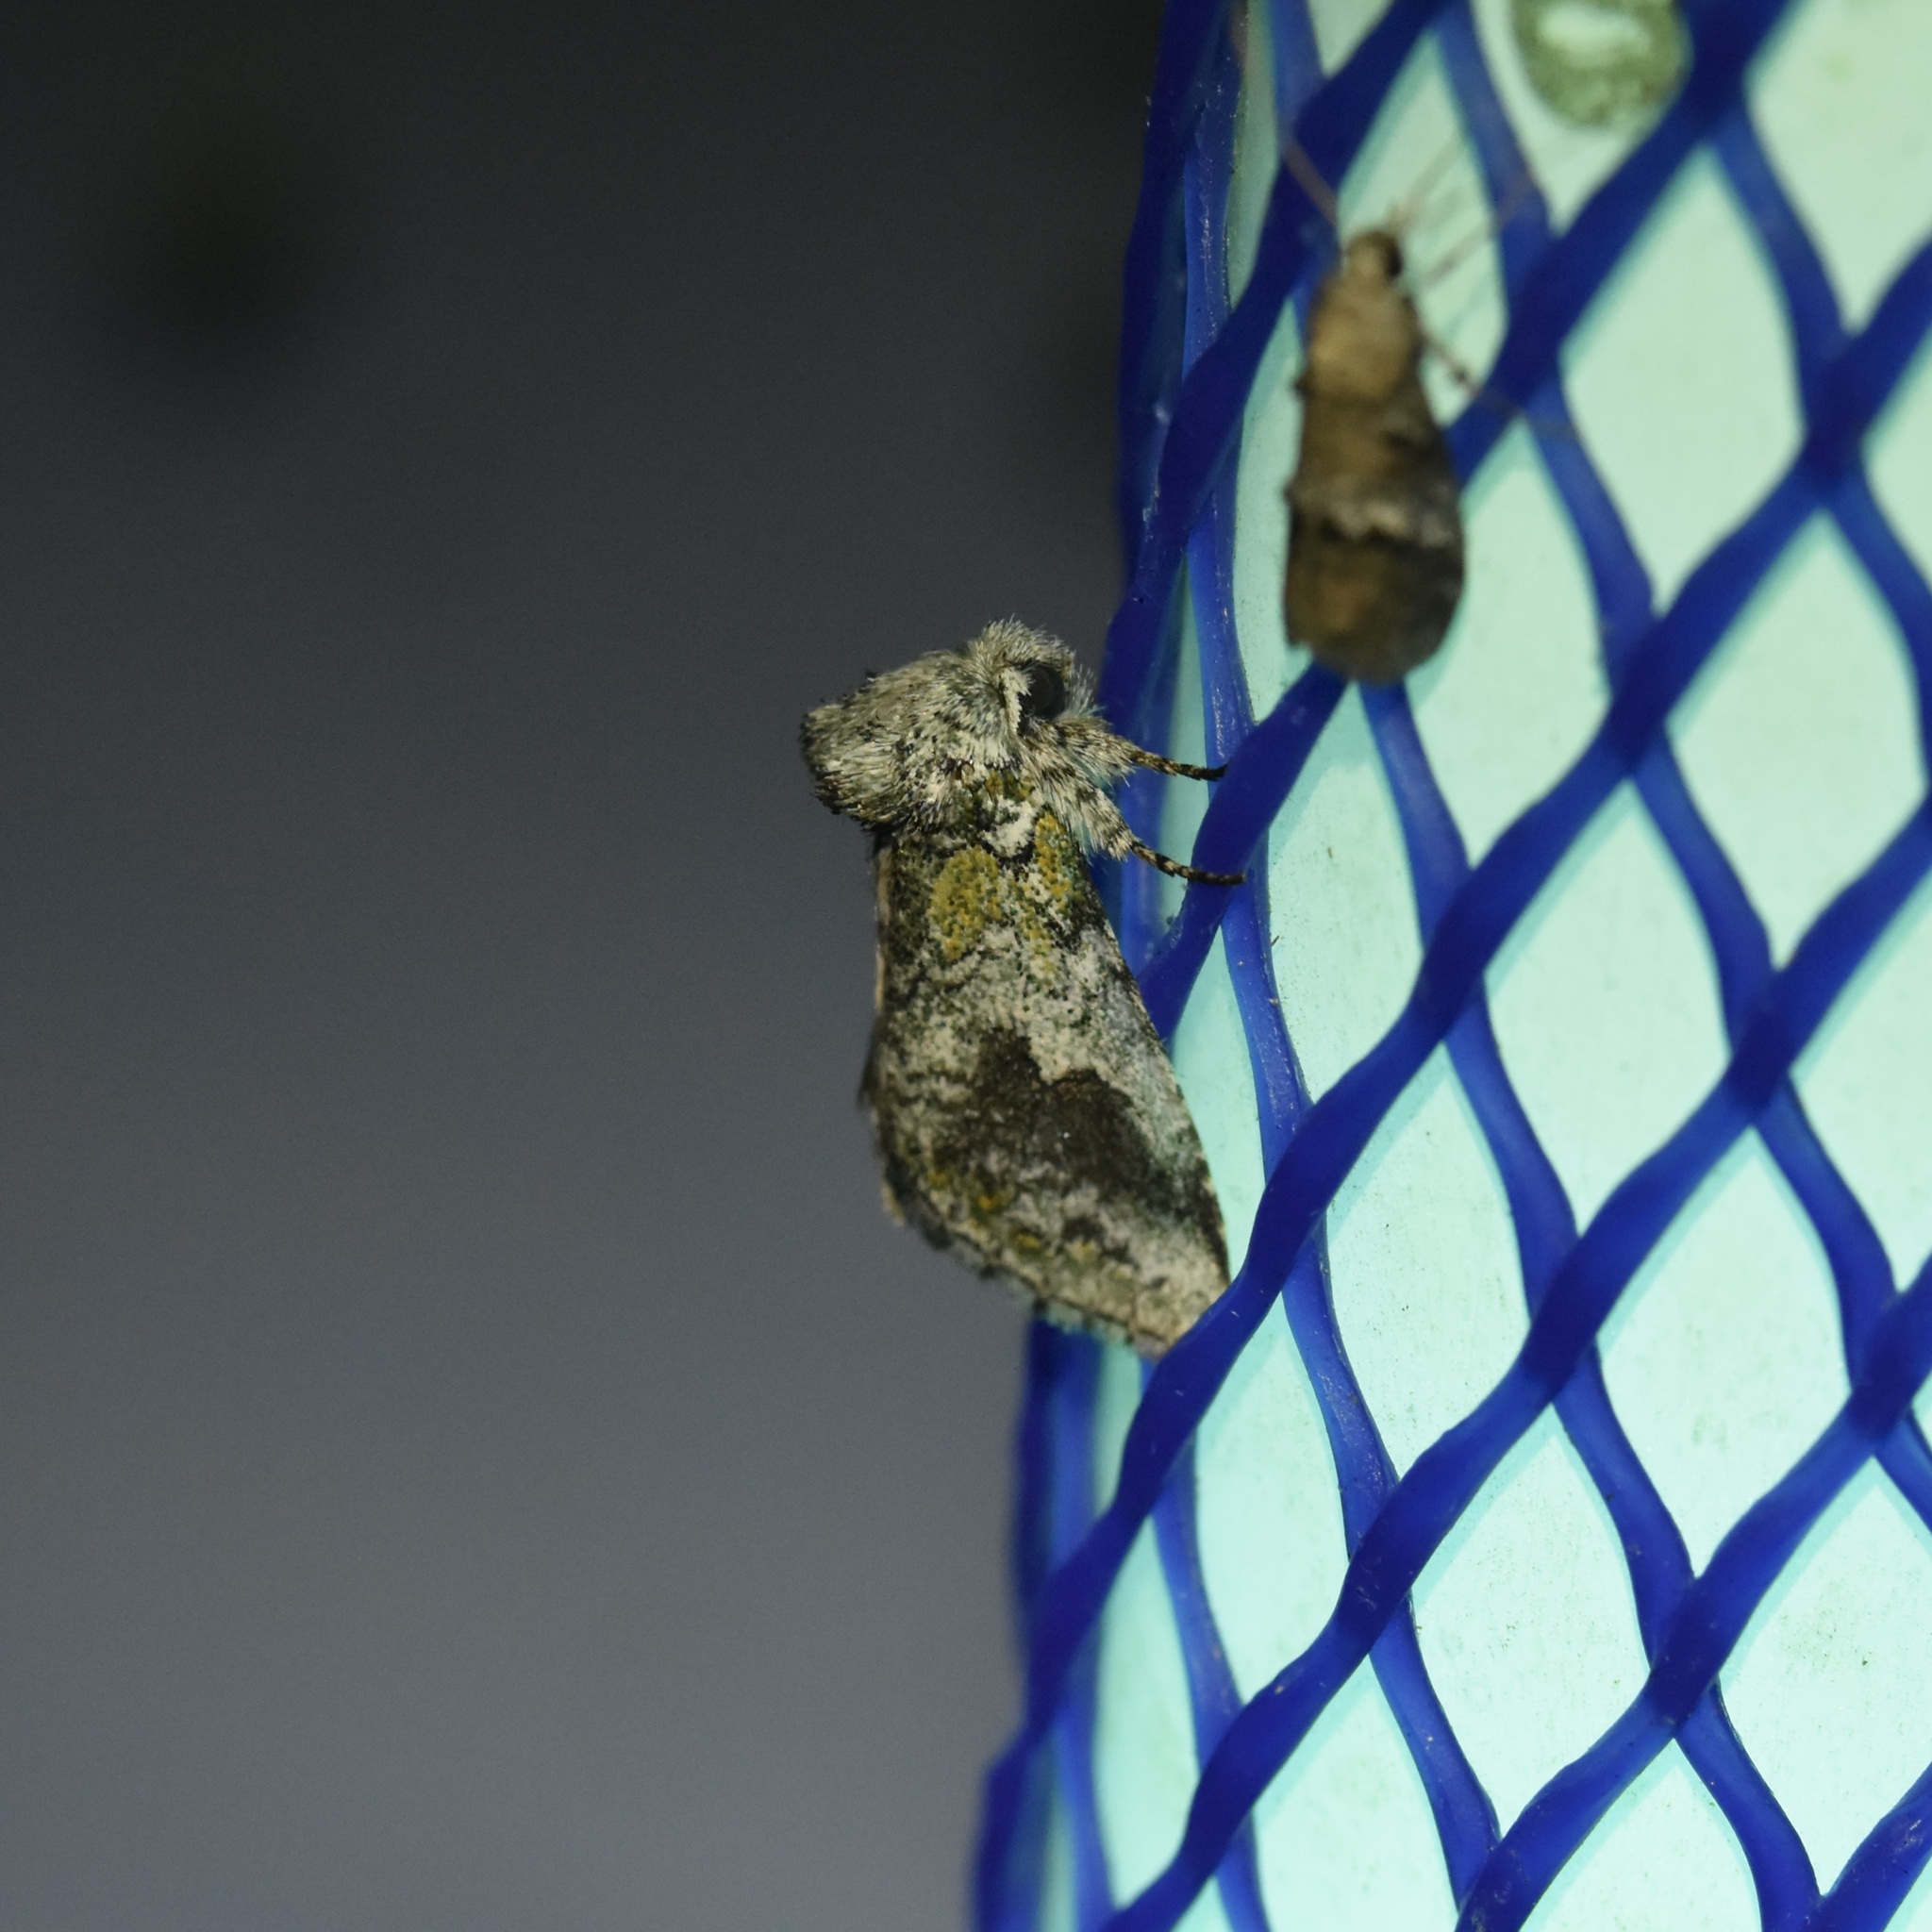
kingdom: Animalia
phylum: Arthropoda
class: Insecta
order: Lepidoptera
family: Notodontidae
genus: Litodonta
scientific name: Litodonta hydromeli
